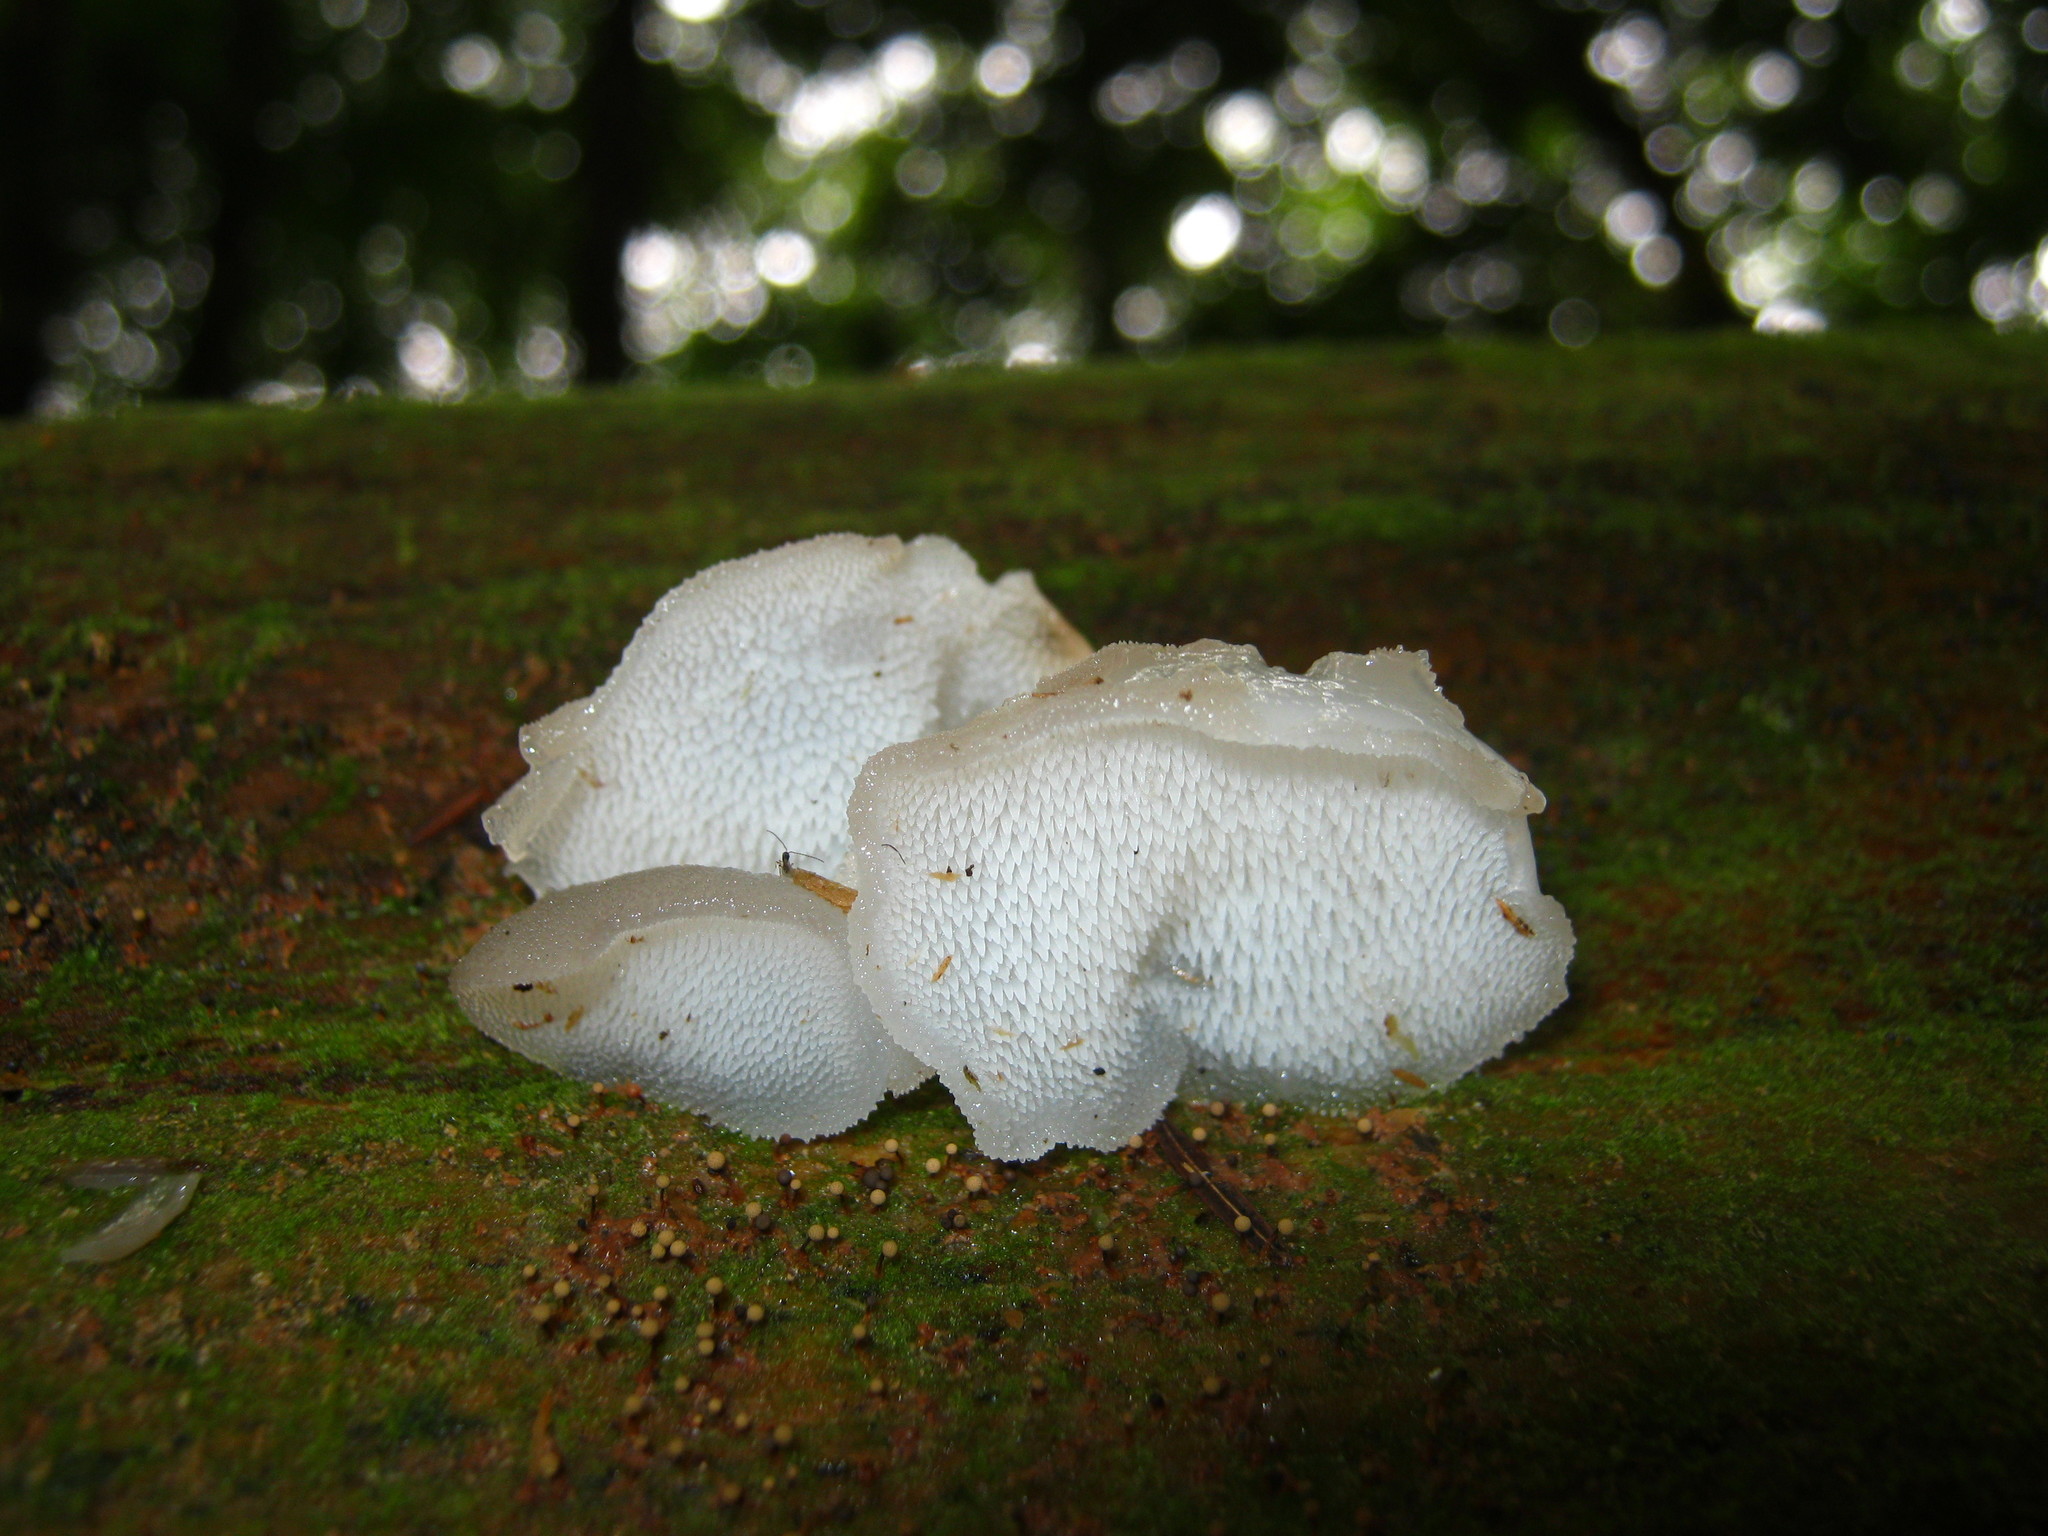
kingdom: Fungi
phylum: Basidiomycota
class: Agaricomycetes
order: Auriculariales
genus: Pseudohydnum
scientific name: Pseudohydnum gelatinosum
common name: Jelly tongue
